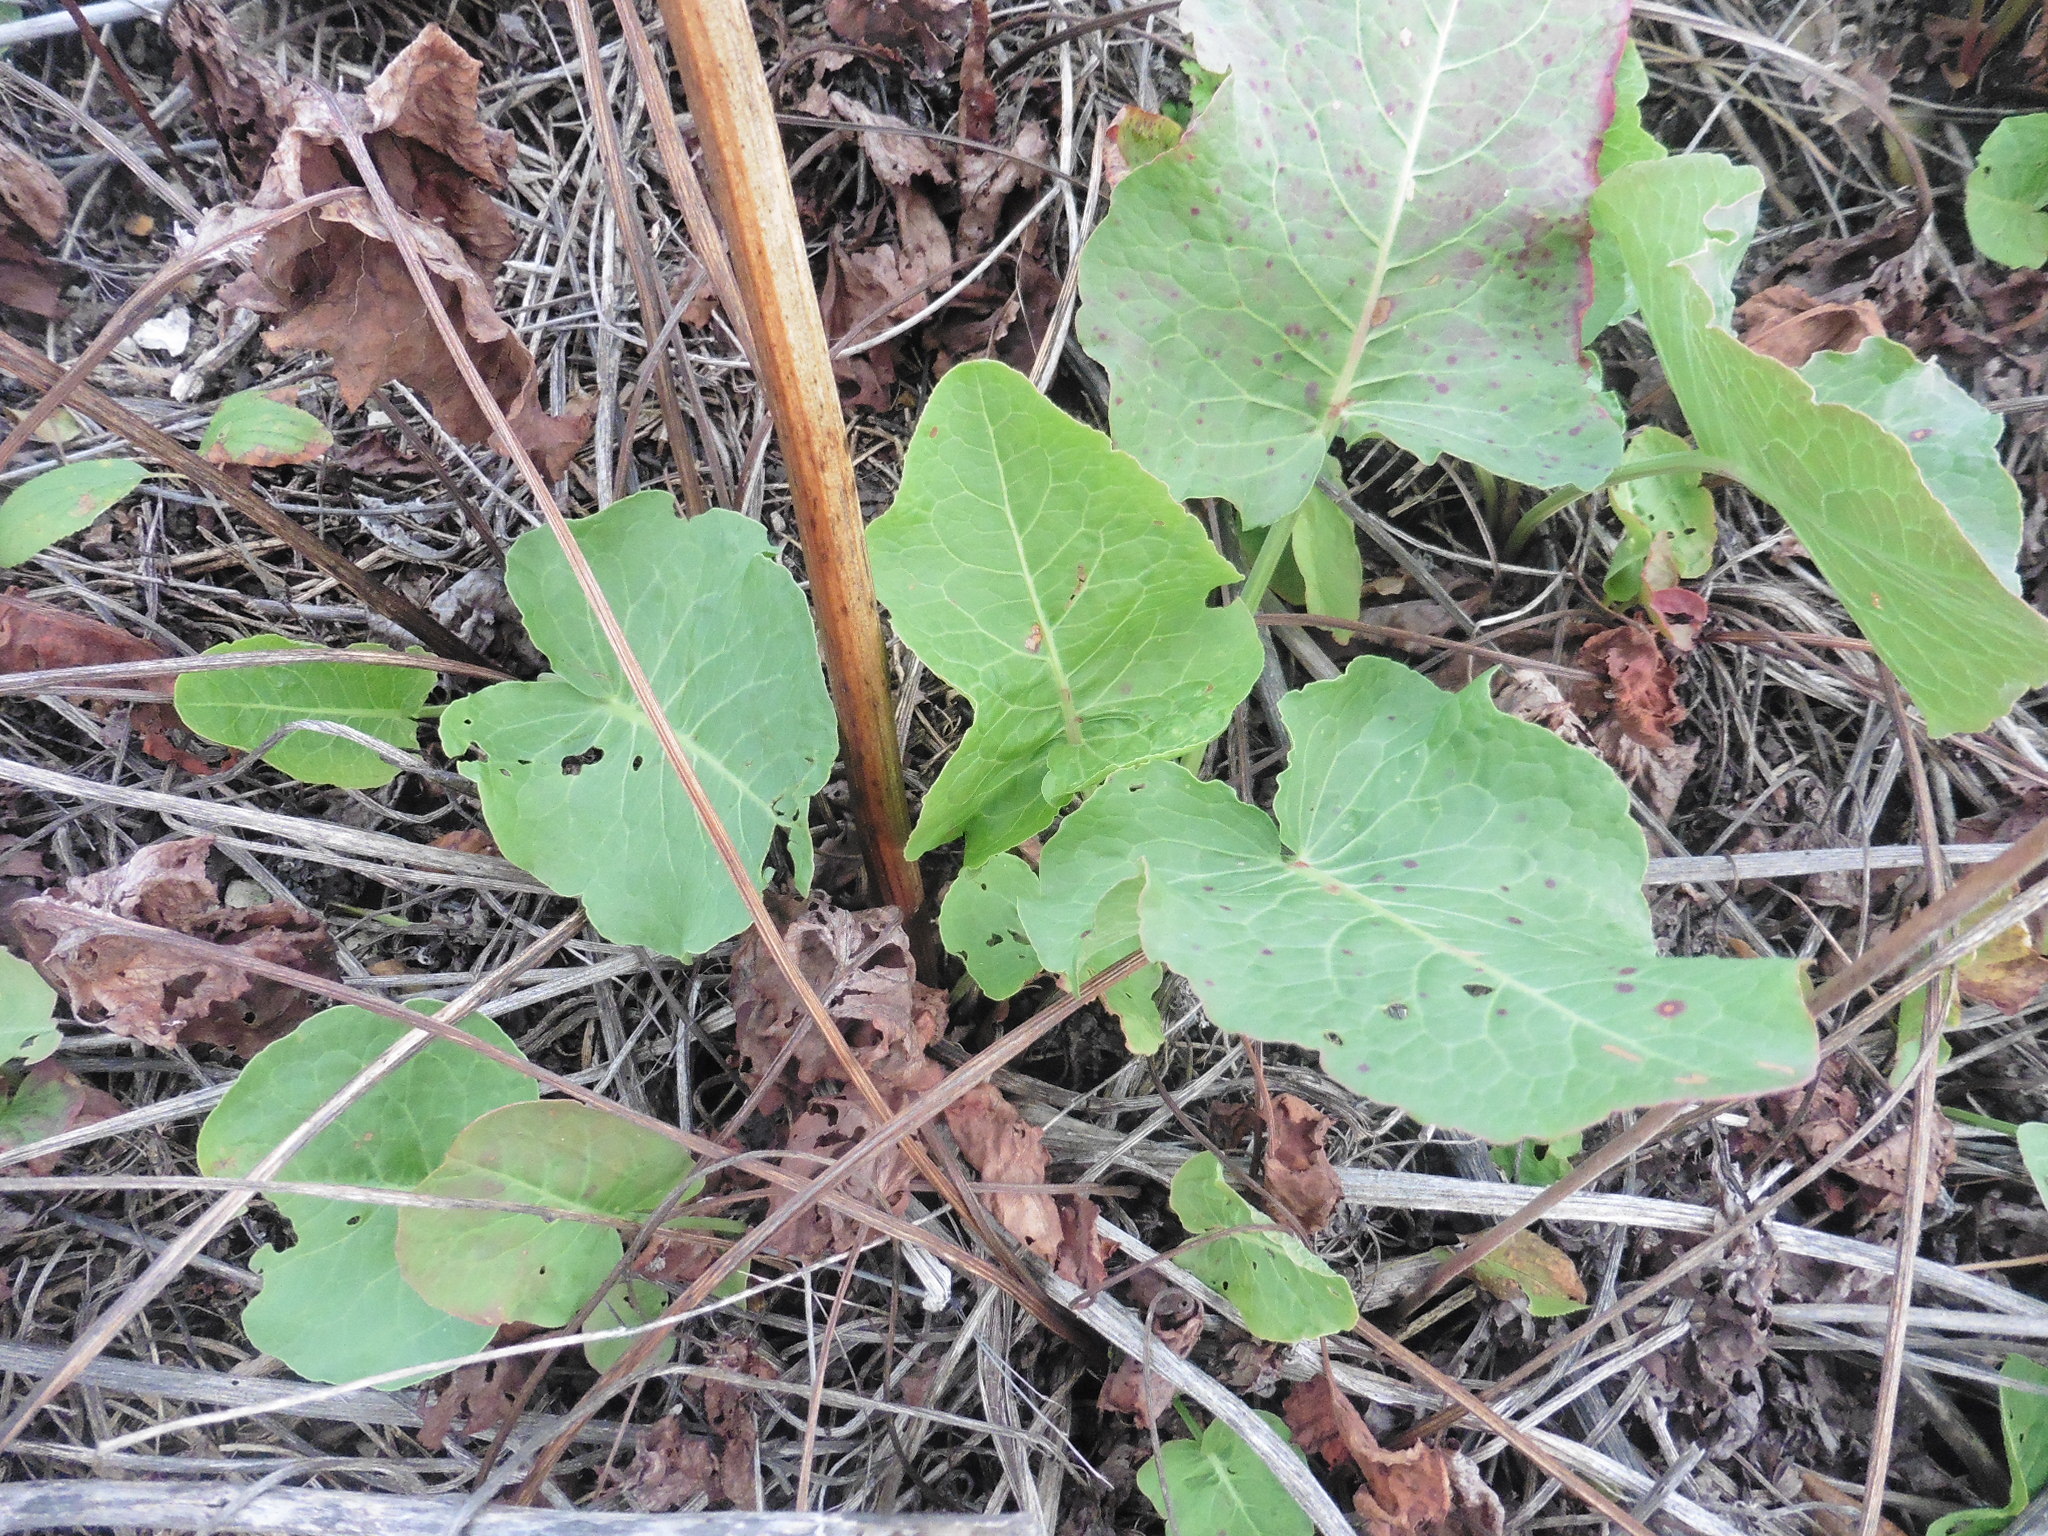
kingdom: Plantae
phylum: Tracheophyta
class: Magnoliopsida
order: Caryophyllales
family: Polygonaceae
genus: Rumex
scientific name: Rumex confertus
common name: Russian dock
